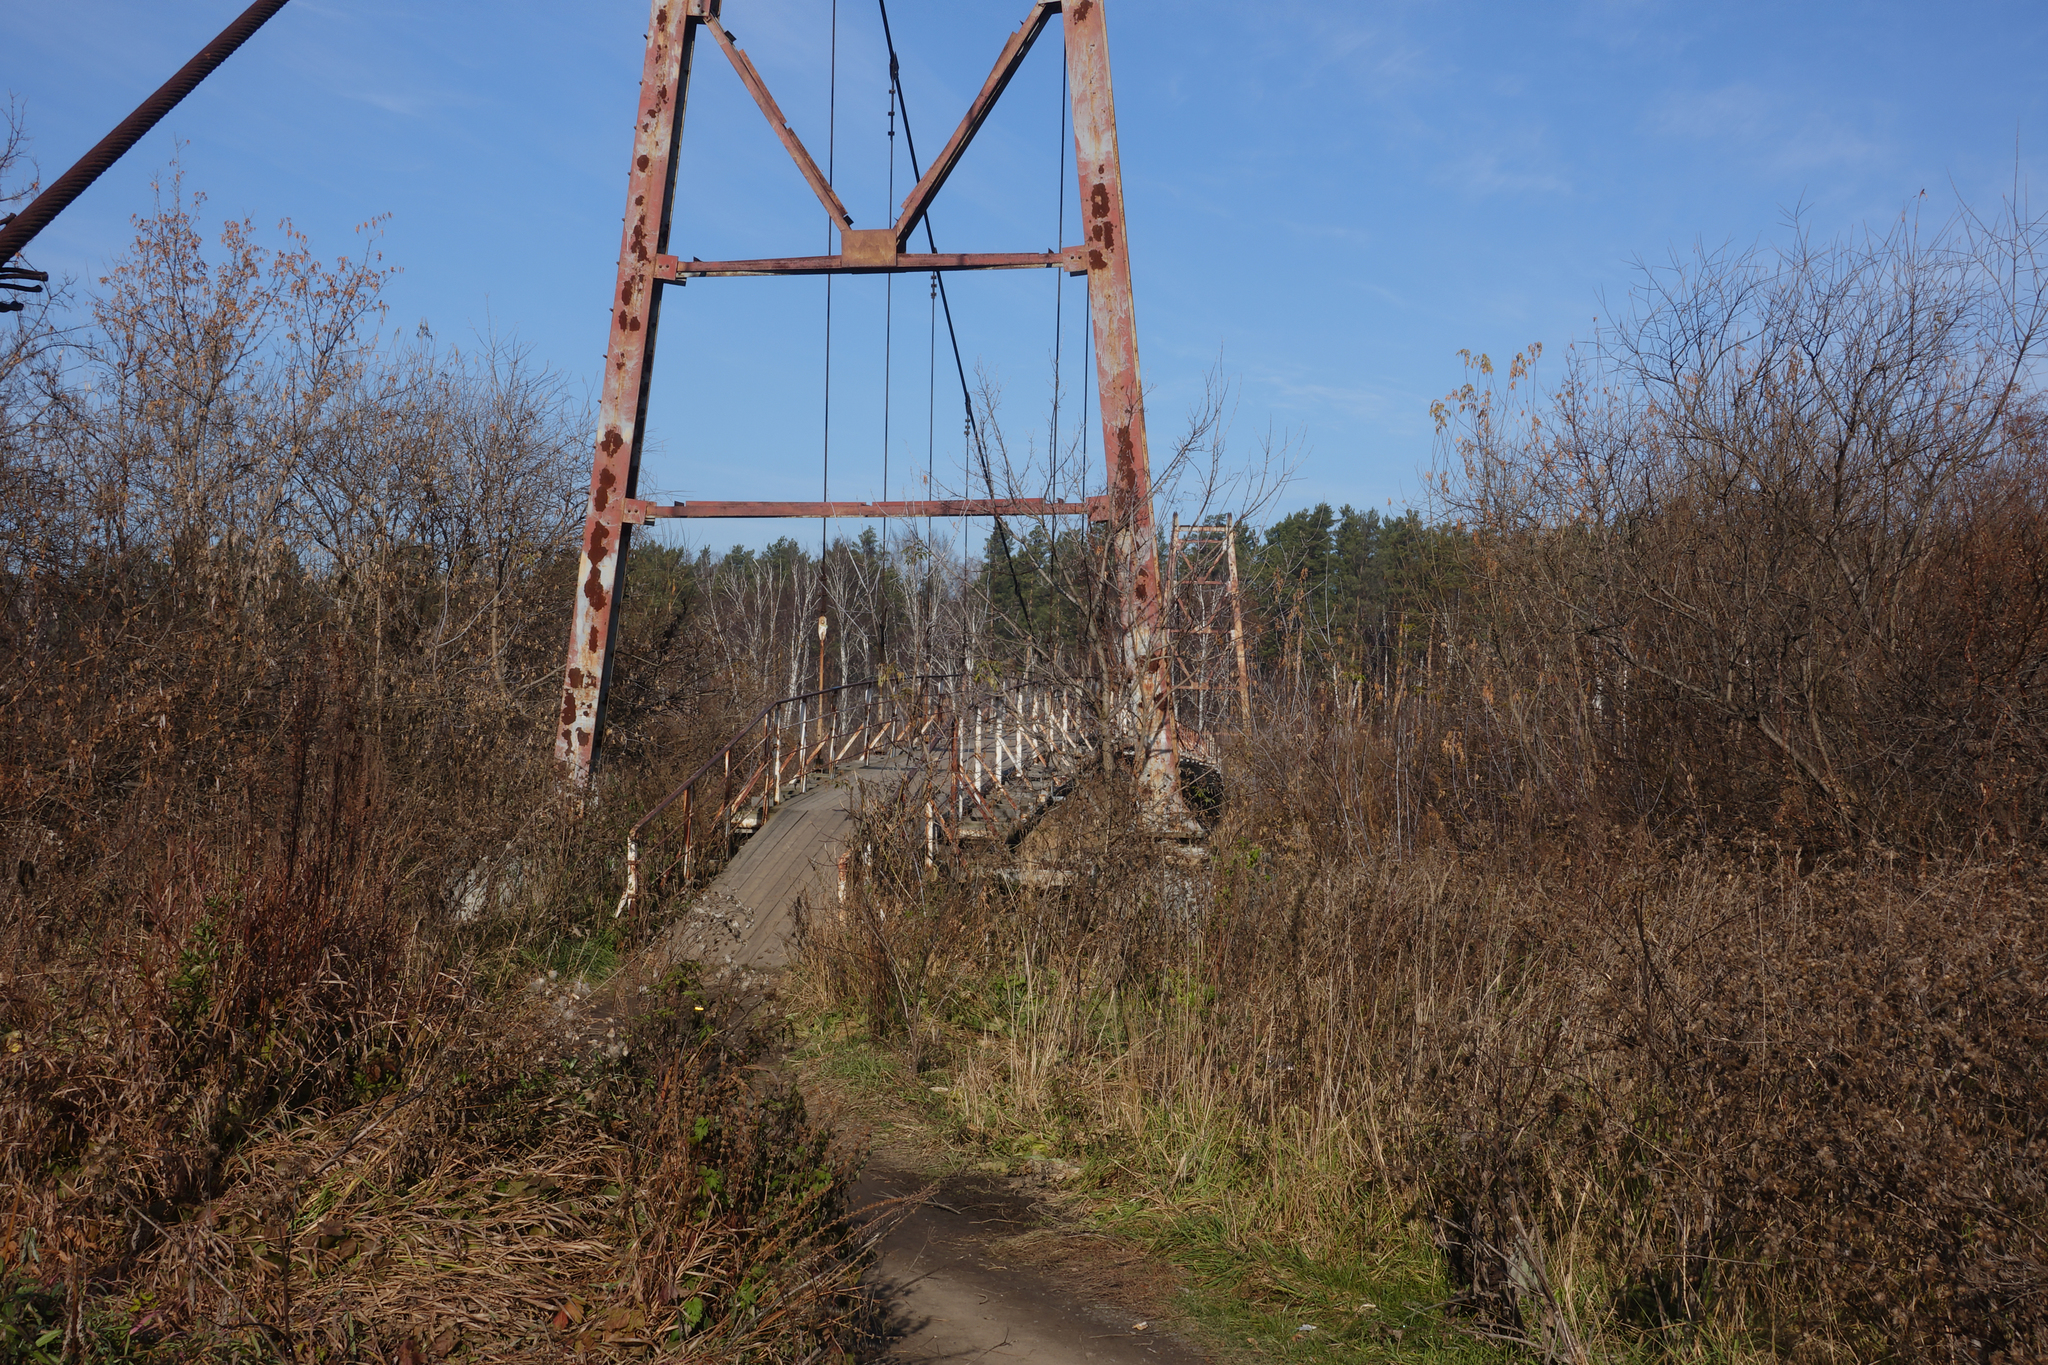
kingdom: Plantae
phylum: Tracheophyta
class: Magnoliopsida
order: Asterales
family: Asteraceae
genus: Arctium
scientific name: Arctium tomentosum
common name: Woolly burdock
